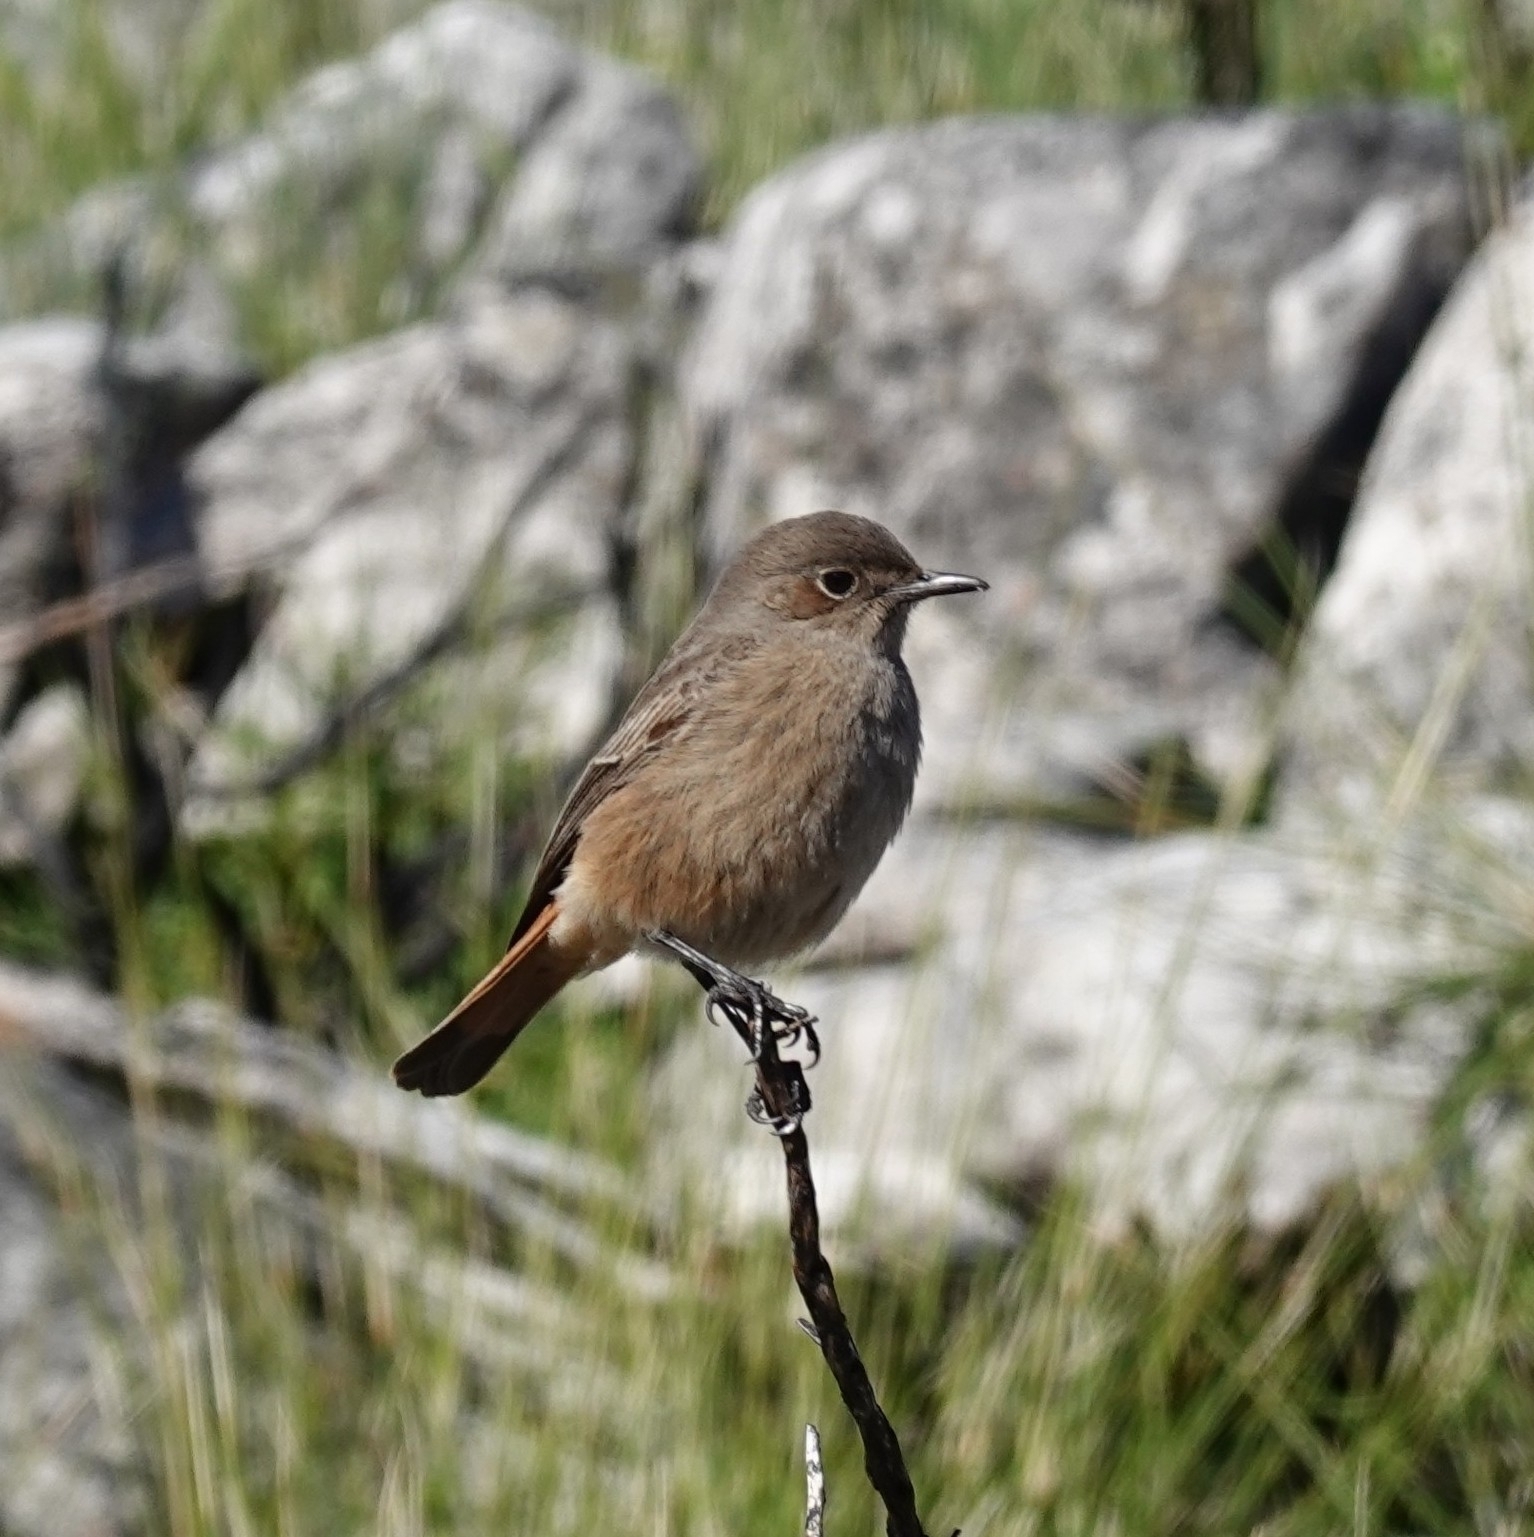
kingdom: Animalia
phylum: Chordata
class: Aves
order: Passeriformes
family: Muscicapidae
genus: Oenanthe
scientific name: Oenanthe familiaris
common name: Familiar chat
